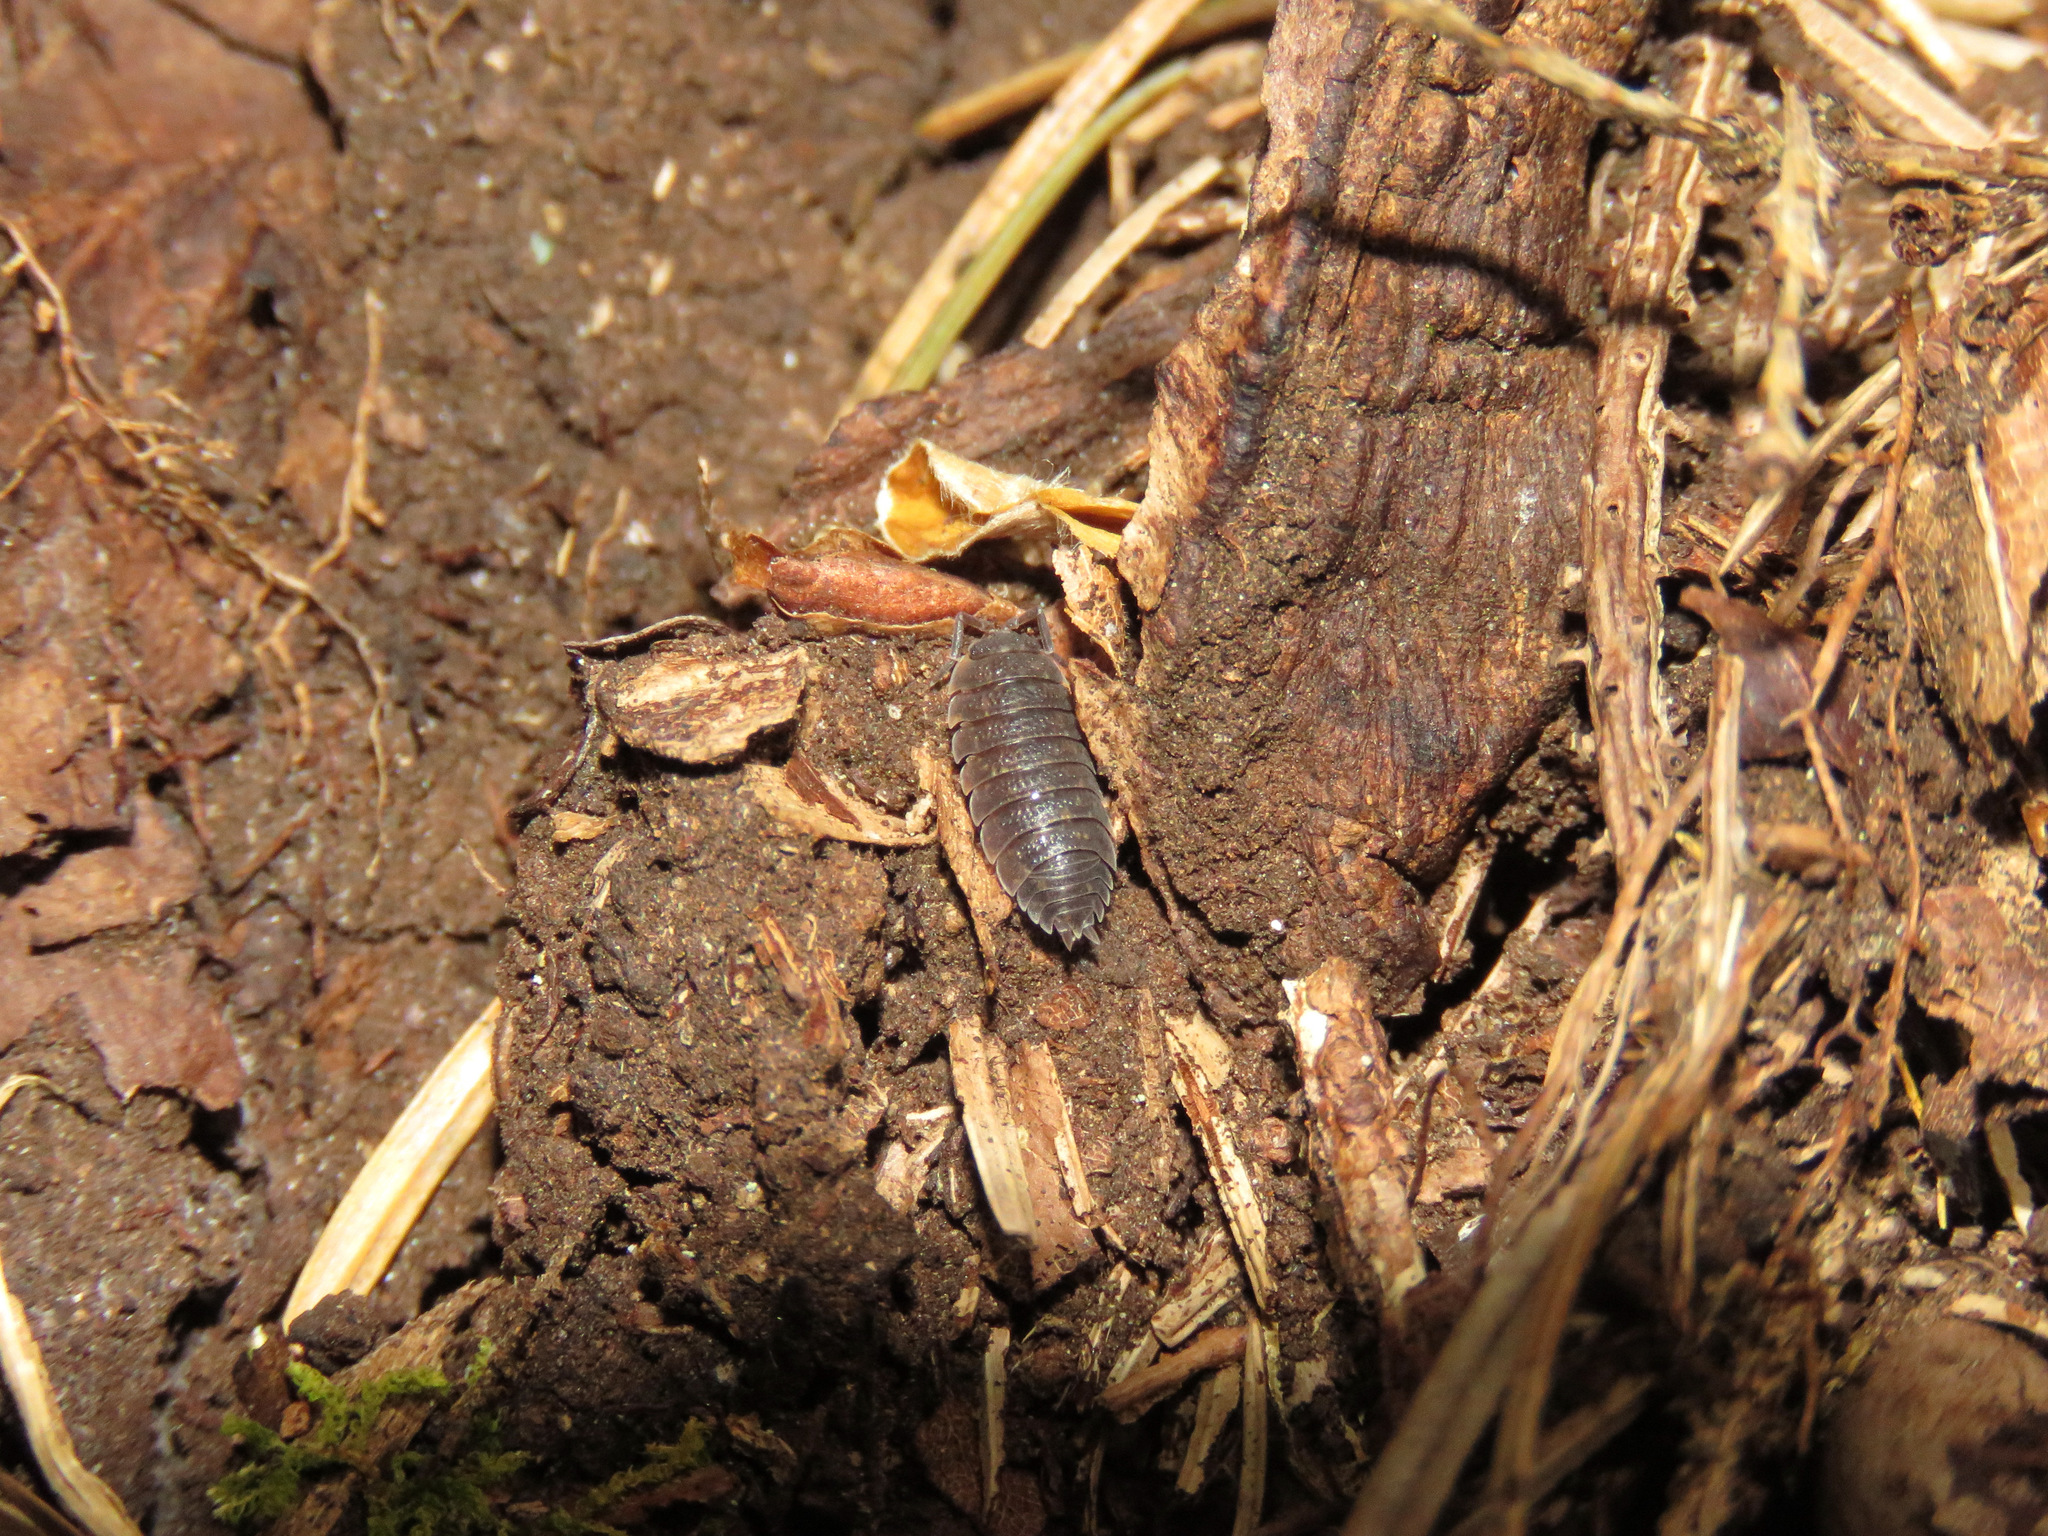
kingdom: Animalia
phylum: Arthropoda
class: Malacostraca
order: Isopoda
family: Porcellionidae
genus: Porcellio
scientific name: Porcellio scaber
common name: Common rough woodlouse
